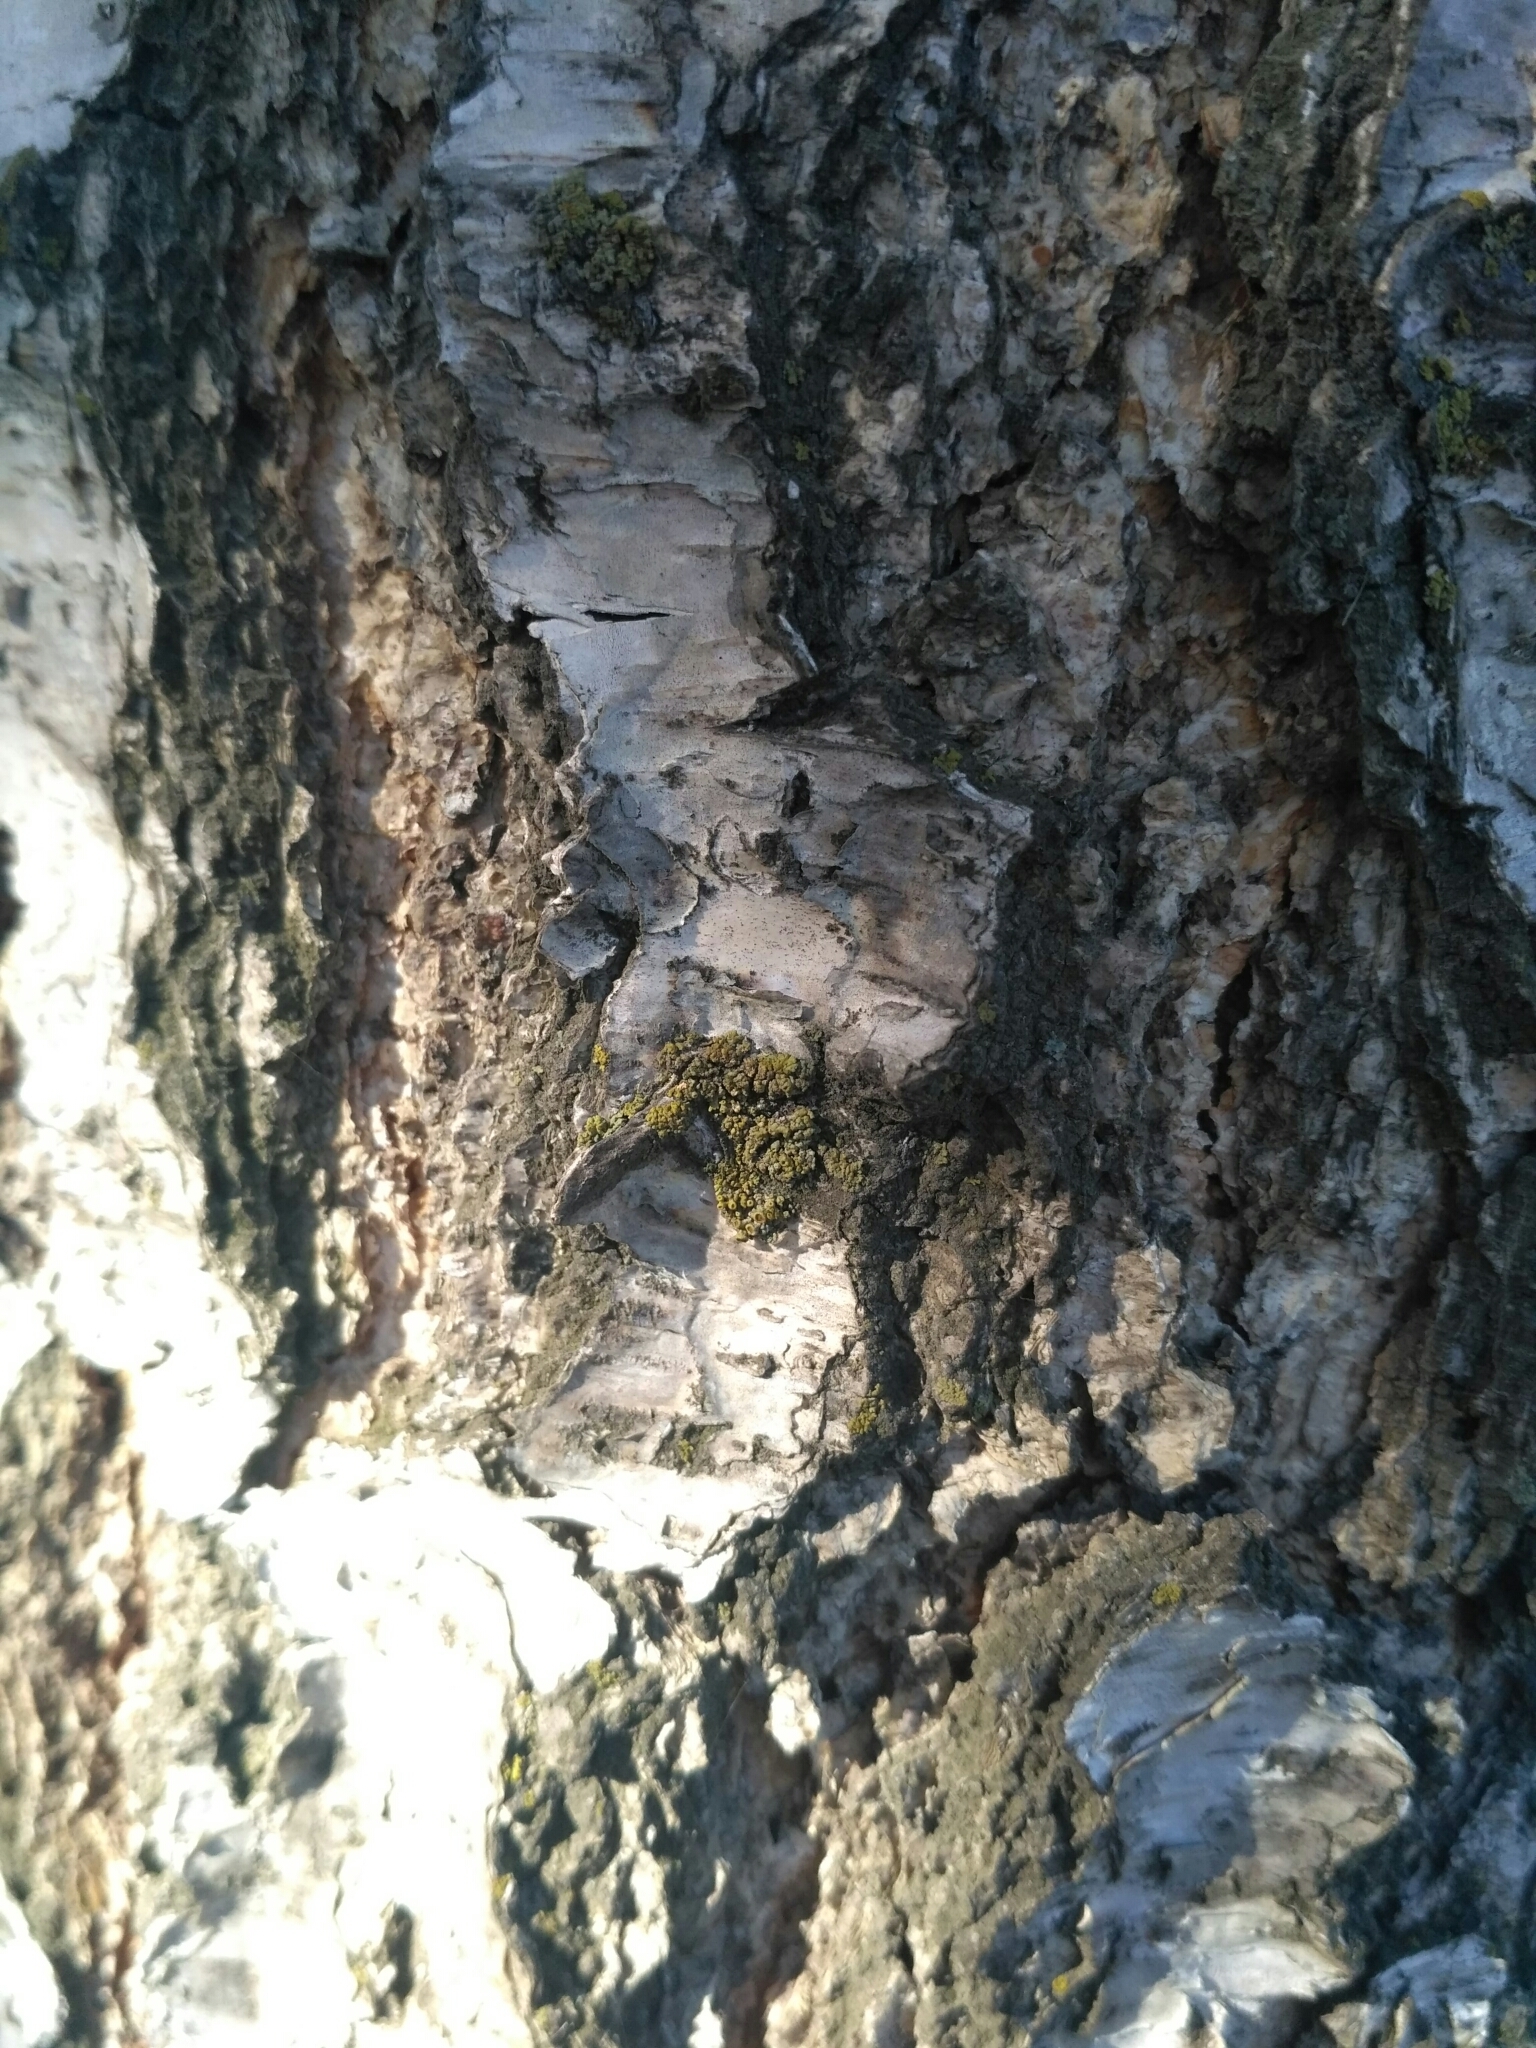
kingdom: Fungi
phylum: Ascomycota
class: Lecanoromycetes
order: Teloschistales
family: Teloschistaceae
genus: Polycauliona
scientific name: Polycauliona polycarpa
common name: Pin-cushion sunburst lichen
